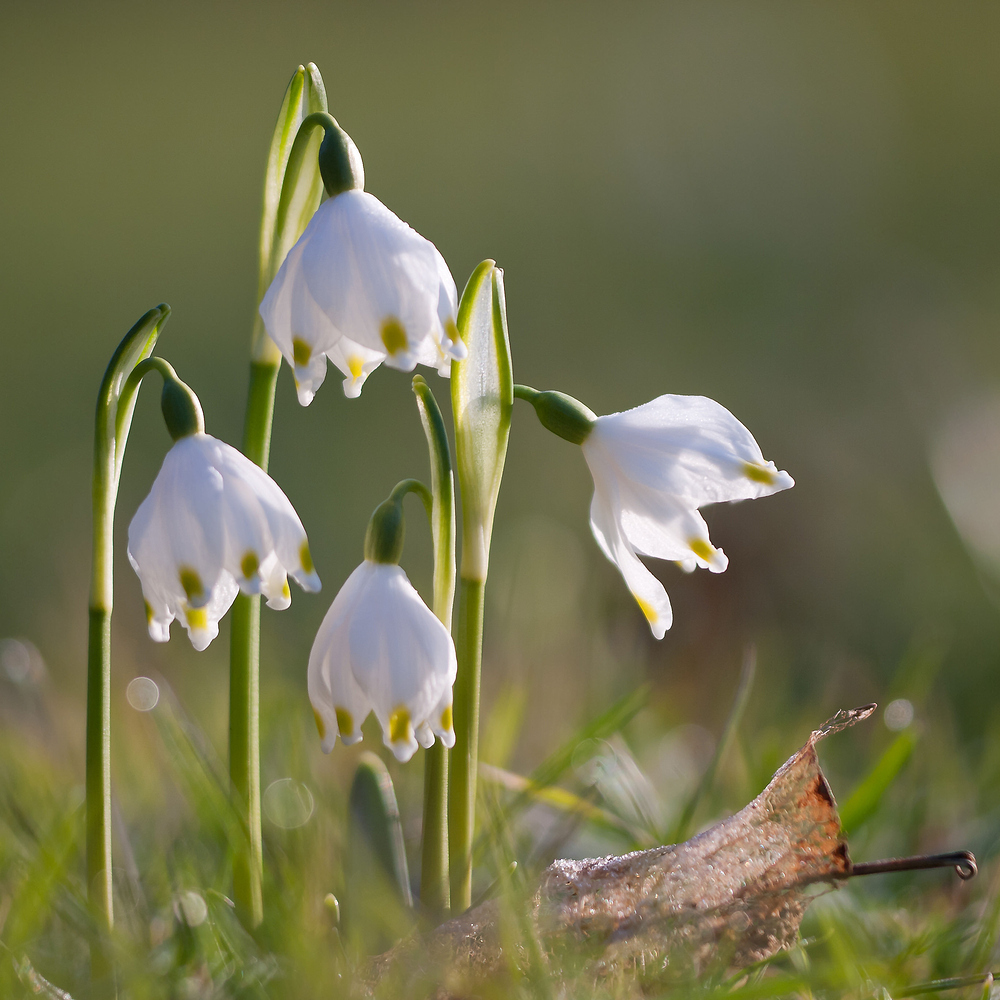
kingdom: Plantae
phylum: Tracheophyta
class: Liliopsida
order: Asparagales
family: Amaryllidaceae
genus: Leucojum
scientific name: Leucojum vernum
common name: Spring snowflake
